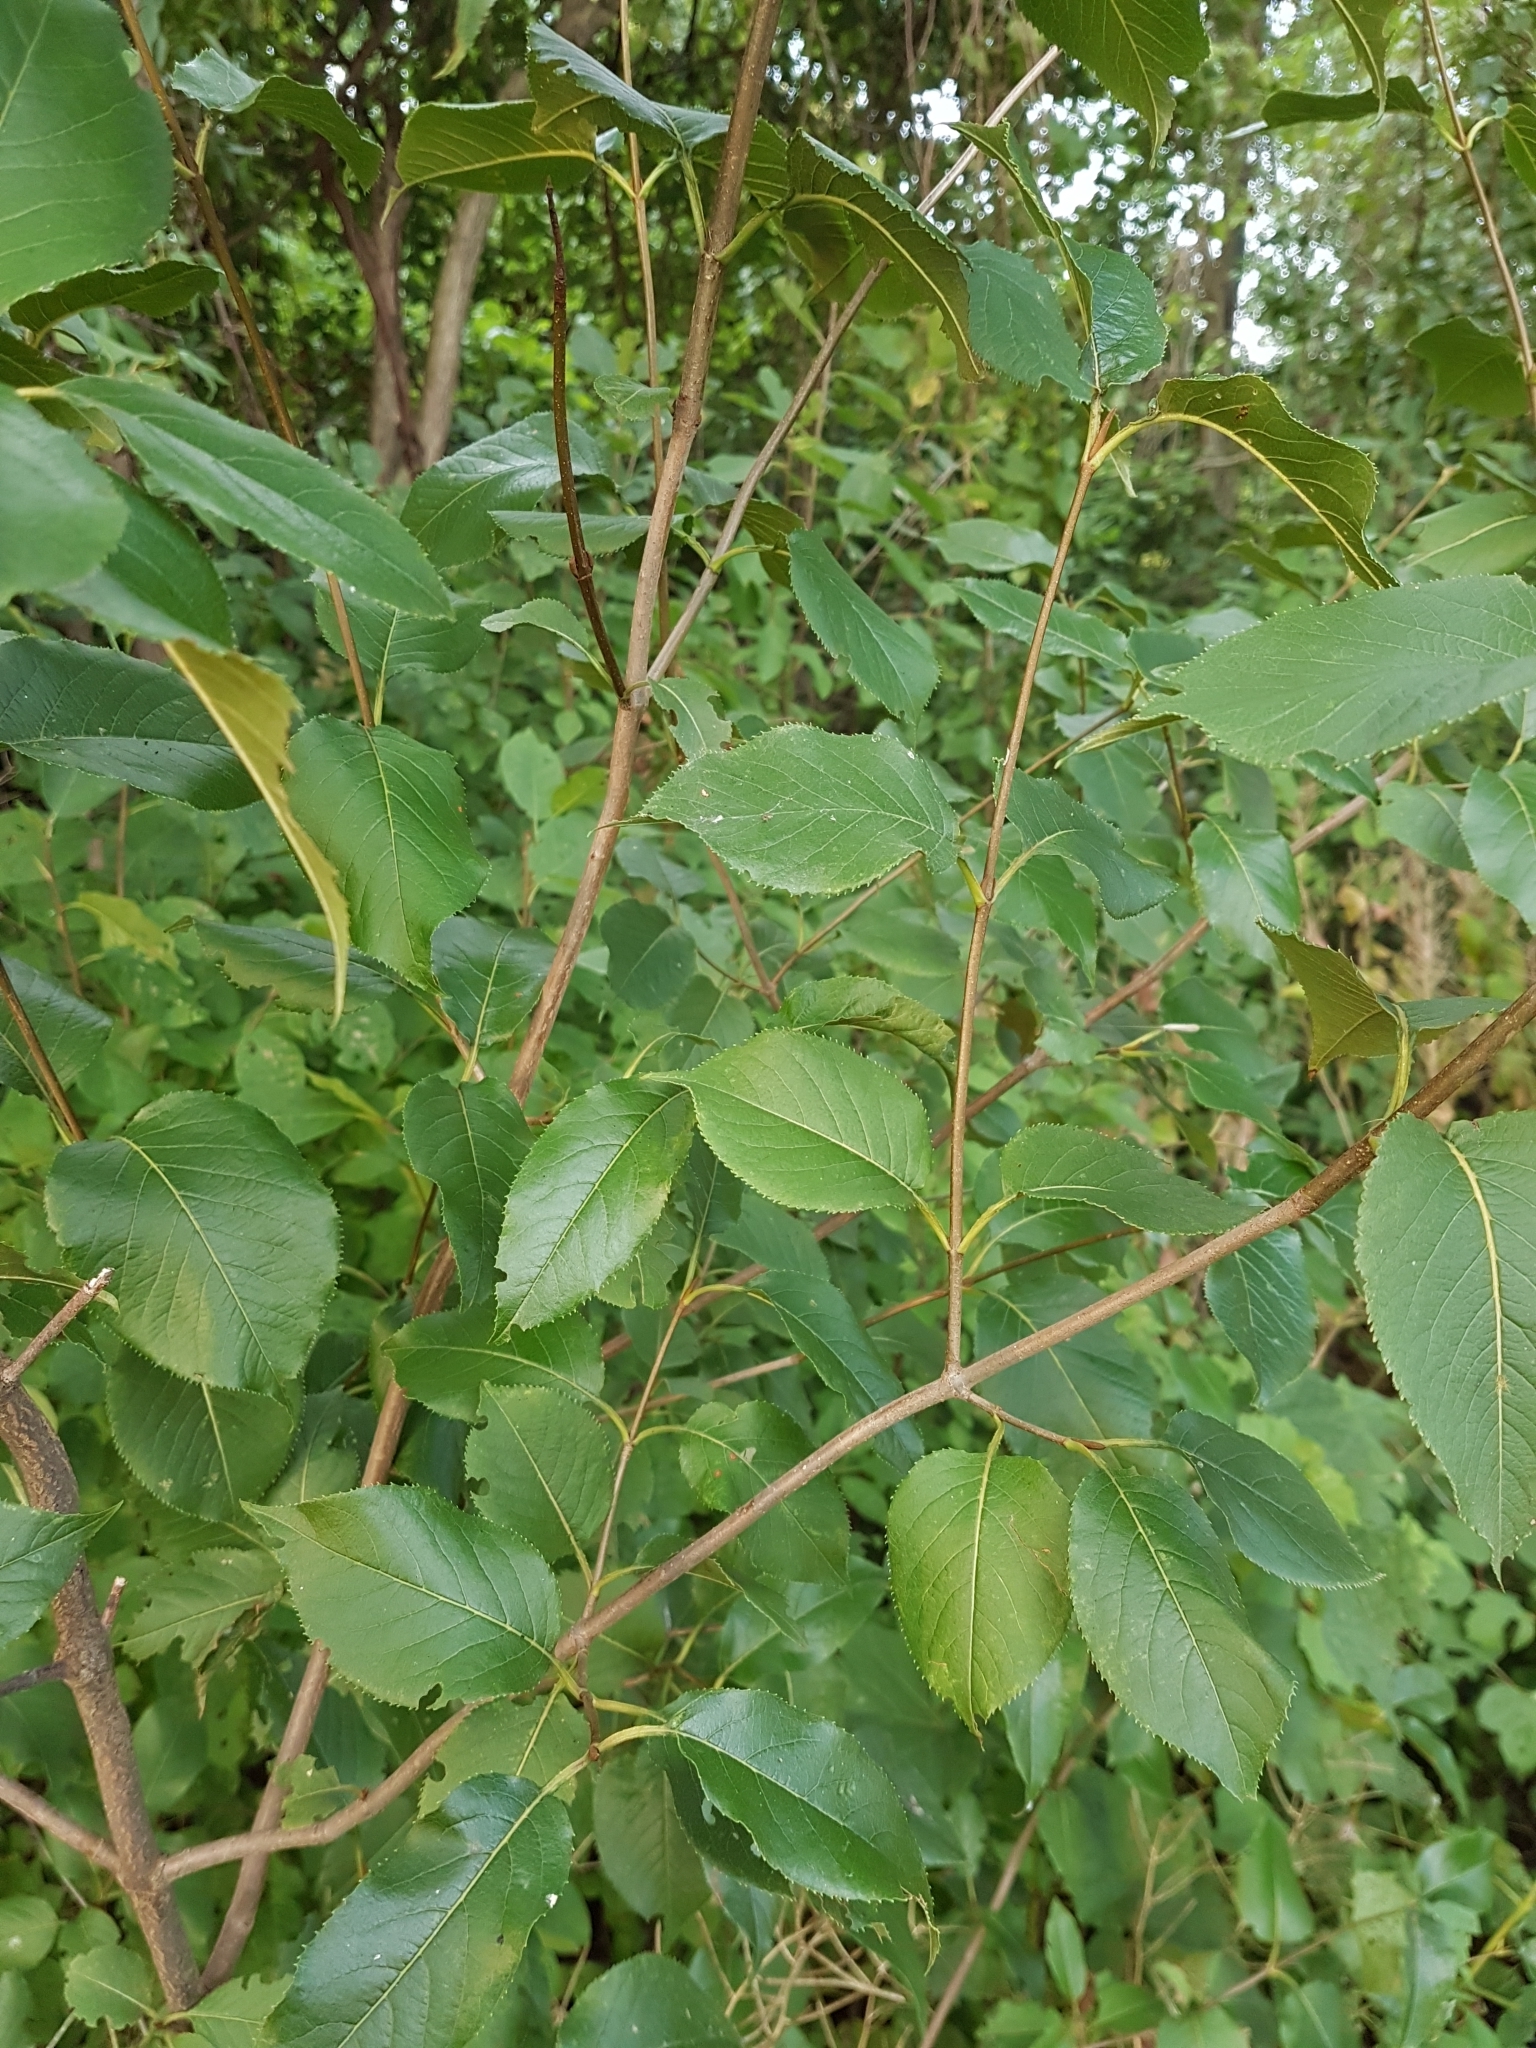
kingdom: Plantae
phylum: Tracheophyta
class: Magnoliopsida
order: Dipsacales
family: Viburnaceae
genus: Viburnum
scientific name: Viburnum lentago
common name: Black haw
